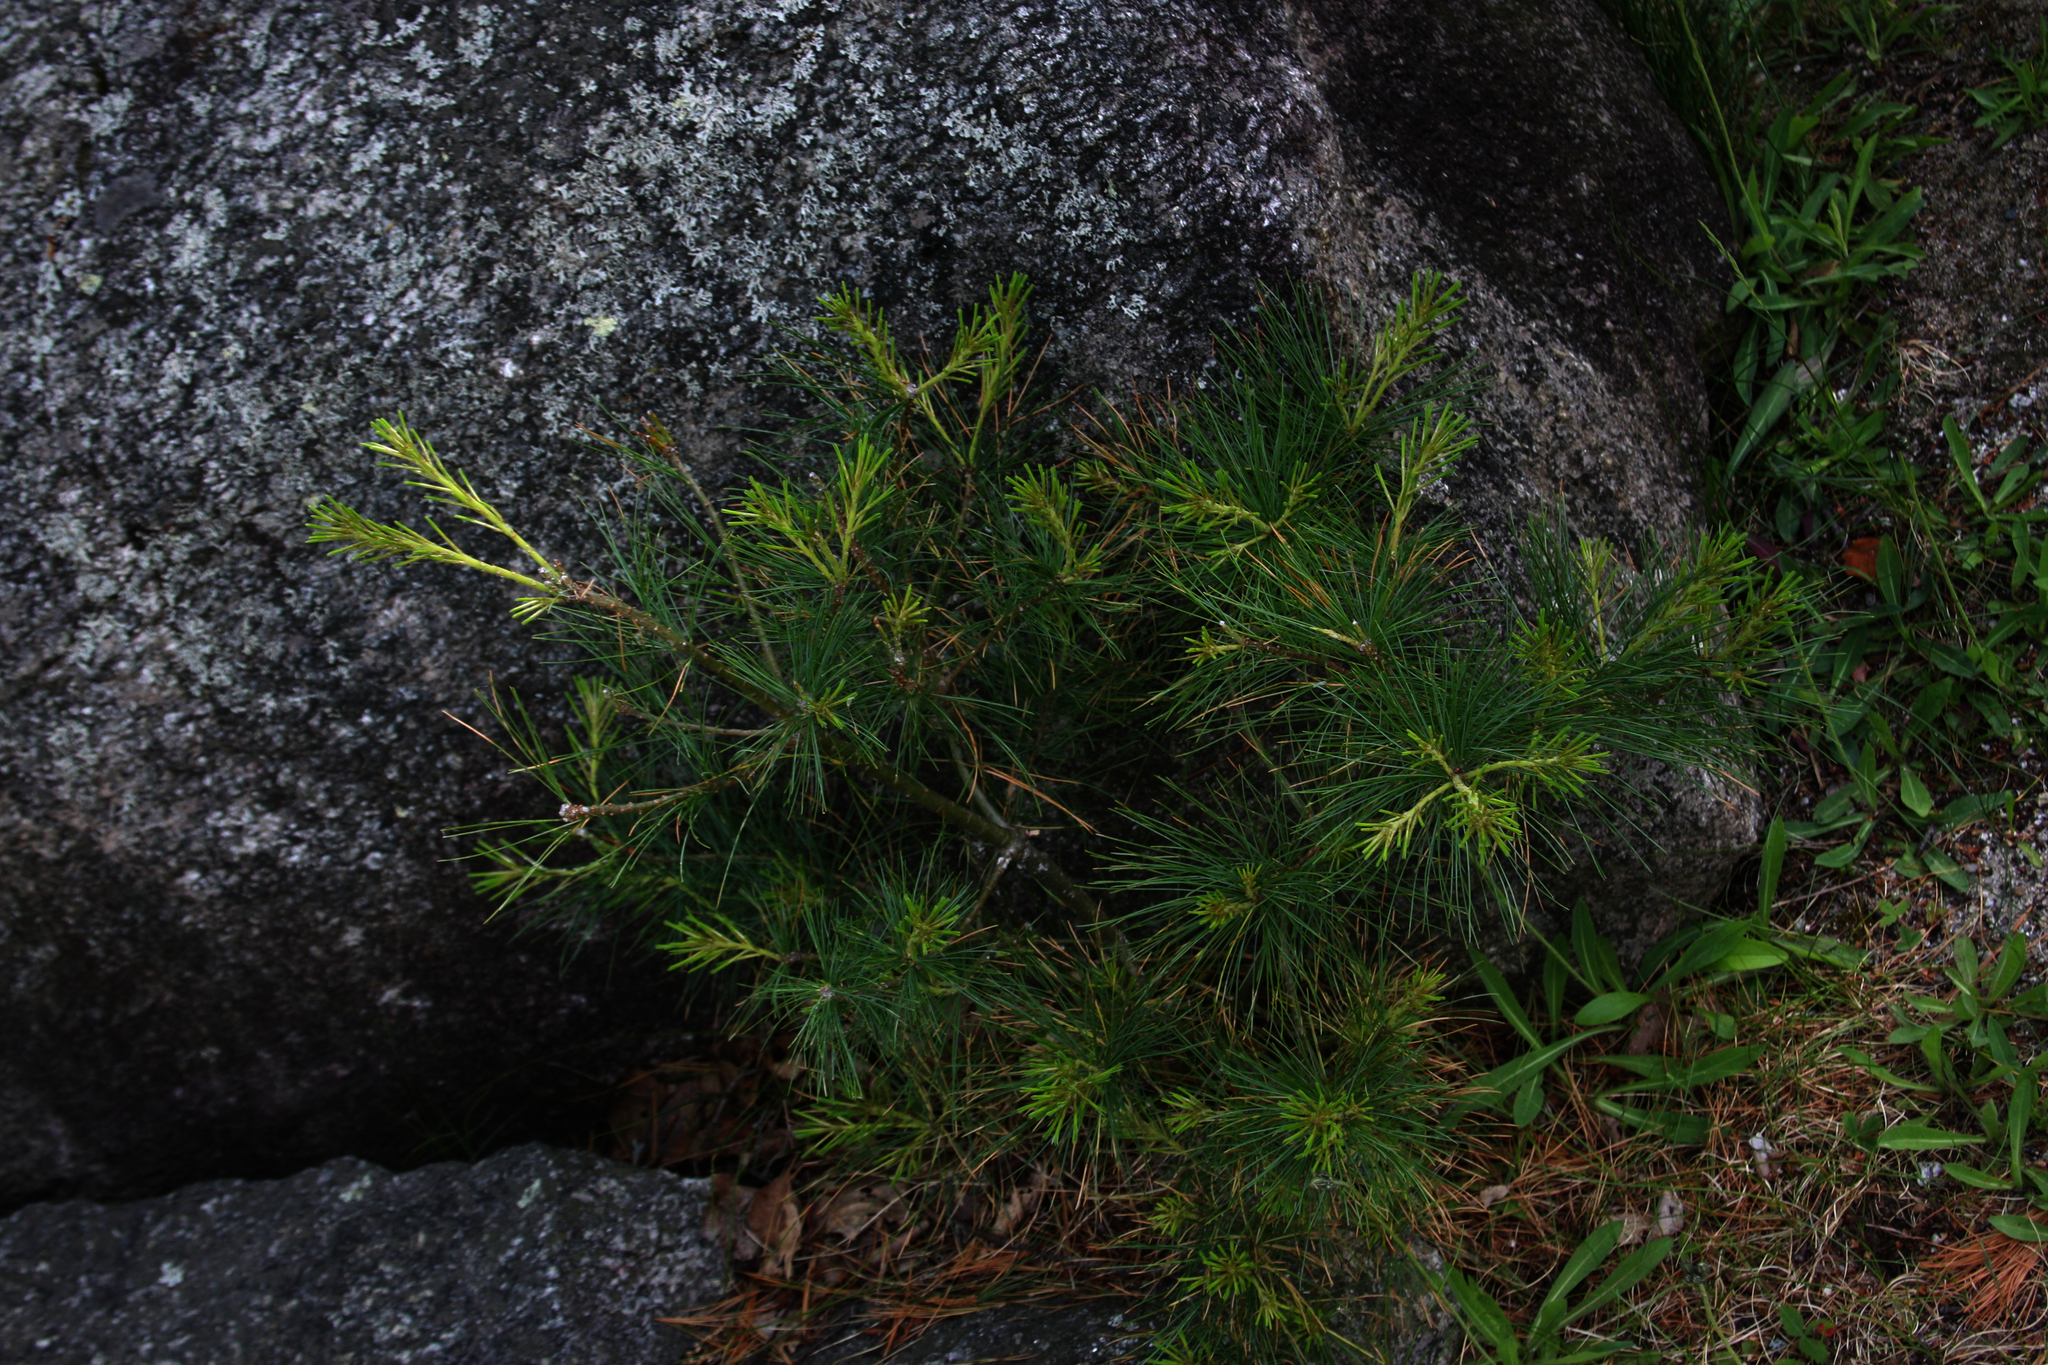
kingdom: Plantae
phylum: Tracheophyta
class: Pinopsida
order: Pinales
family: Pinaceae
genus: Pinus
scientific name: Pinus strobus
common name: Weymouth pine
